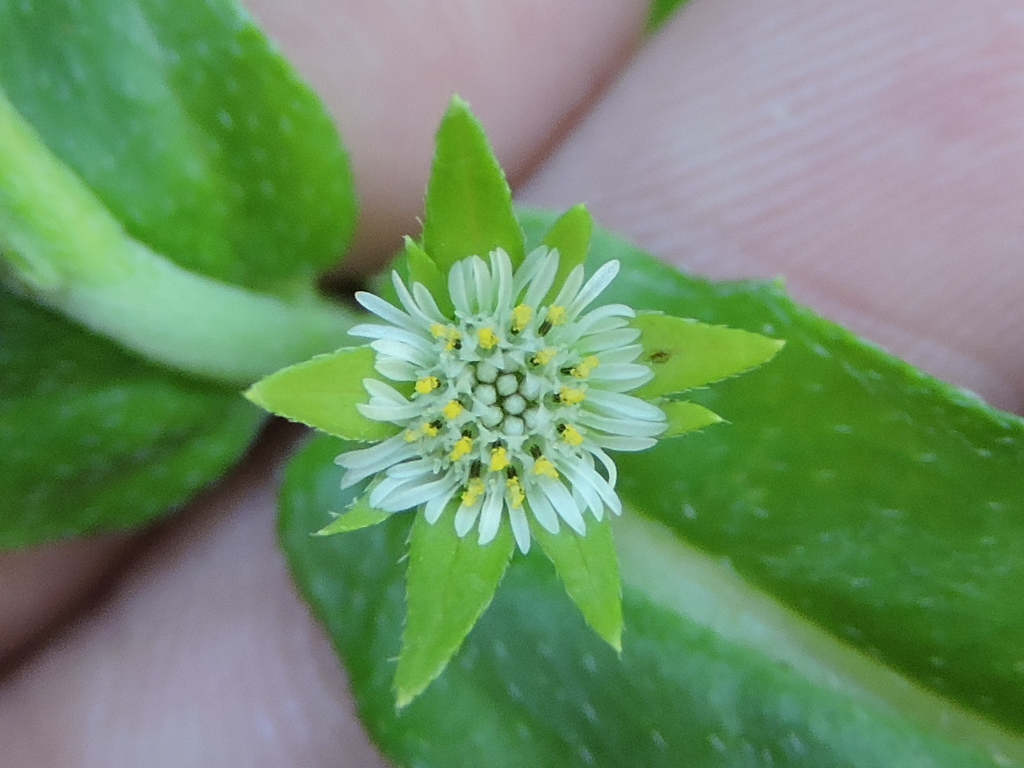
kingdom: Plantae
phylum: Tracheophyta
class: Magnoliopsida
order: Asterales
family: Asteraceae
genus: Eclipta
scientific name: Eclipta prostrata
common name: False daisy
